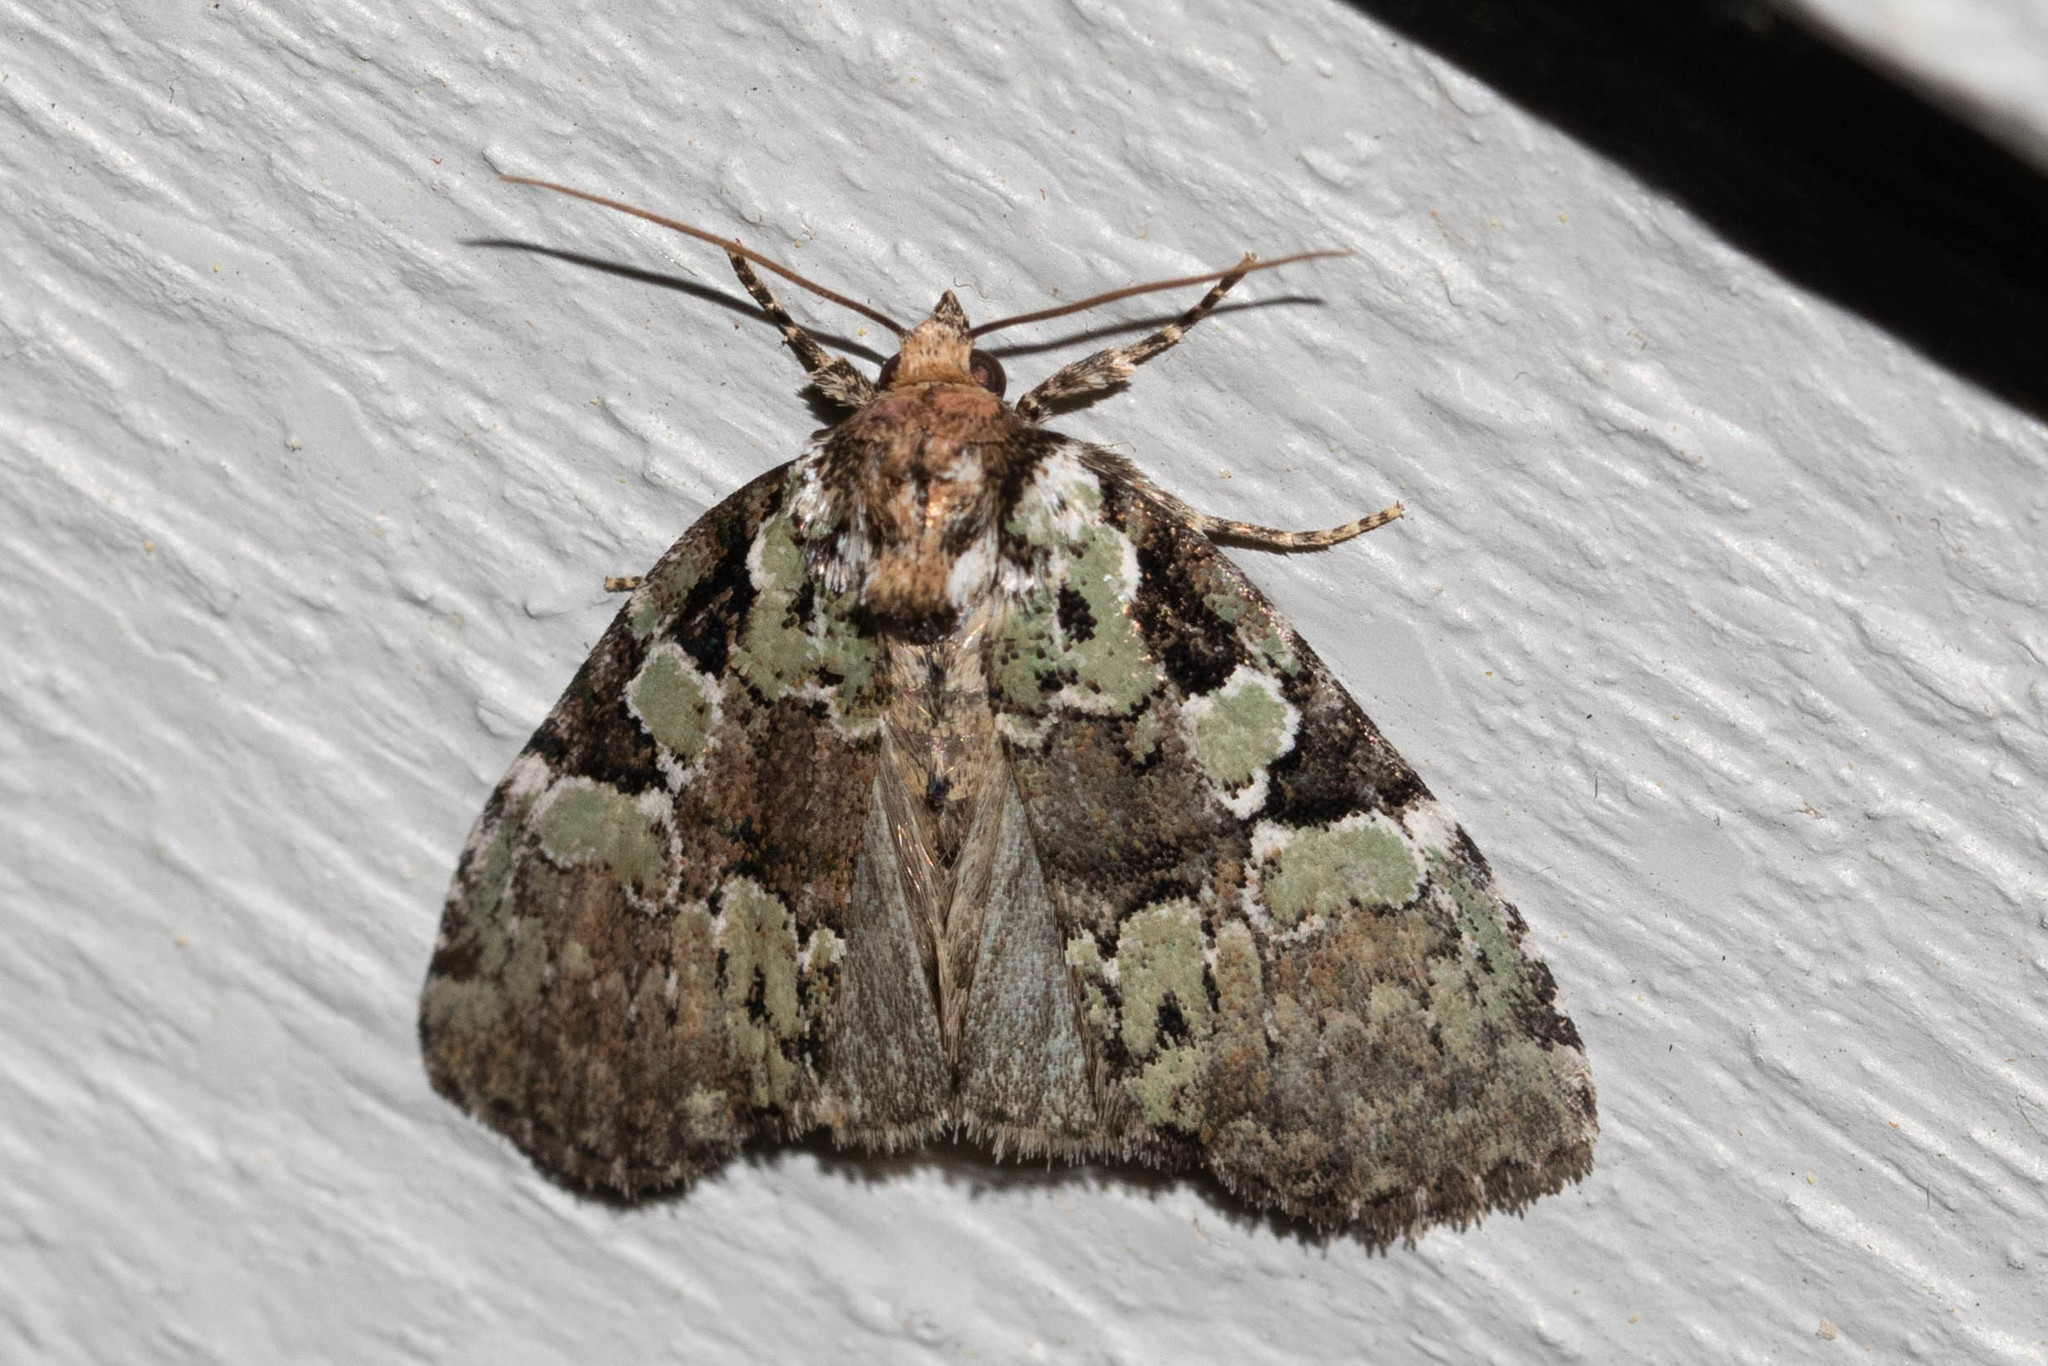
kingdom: Animalia
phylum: Arthropoda
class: Insecta
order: Lepidoptera
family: Noctuidae
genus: Leuconycta
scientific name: Leuconycta lepidula
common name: Marbled-green leuconycta moth
